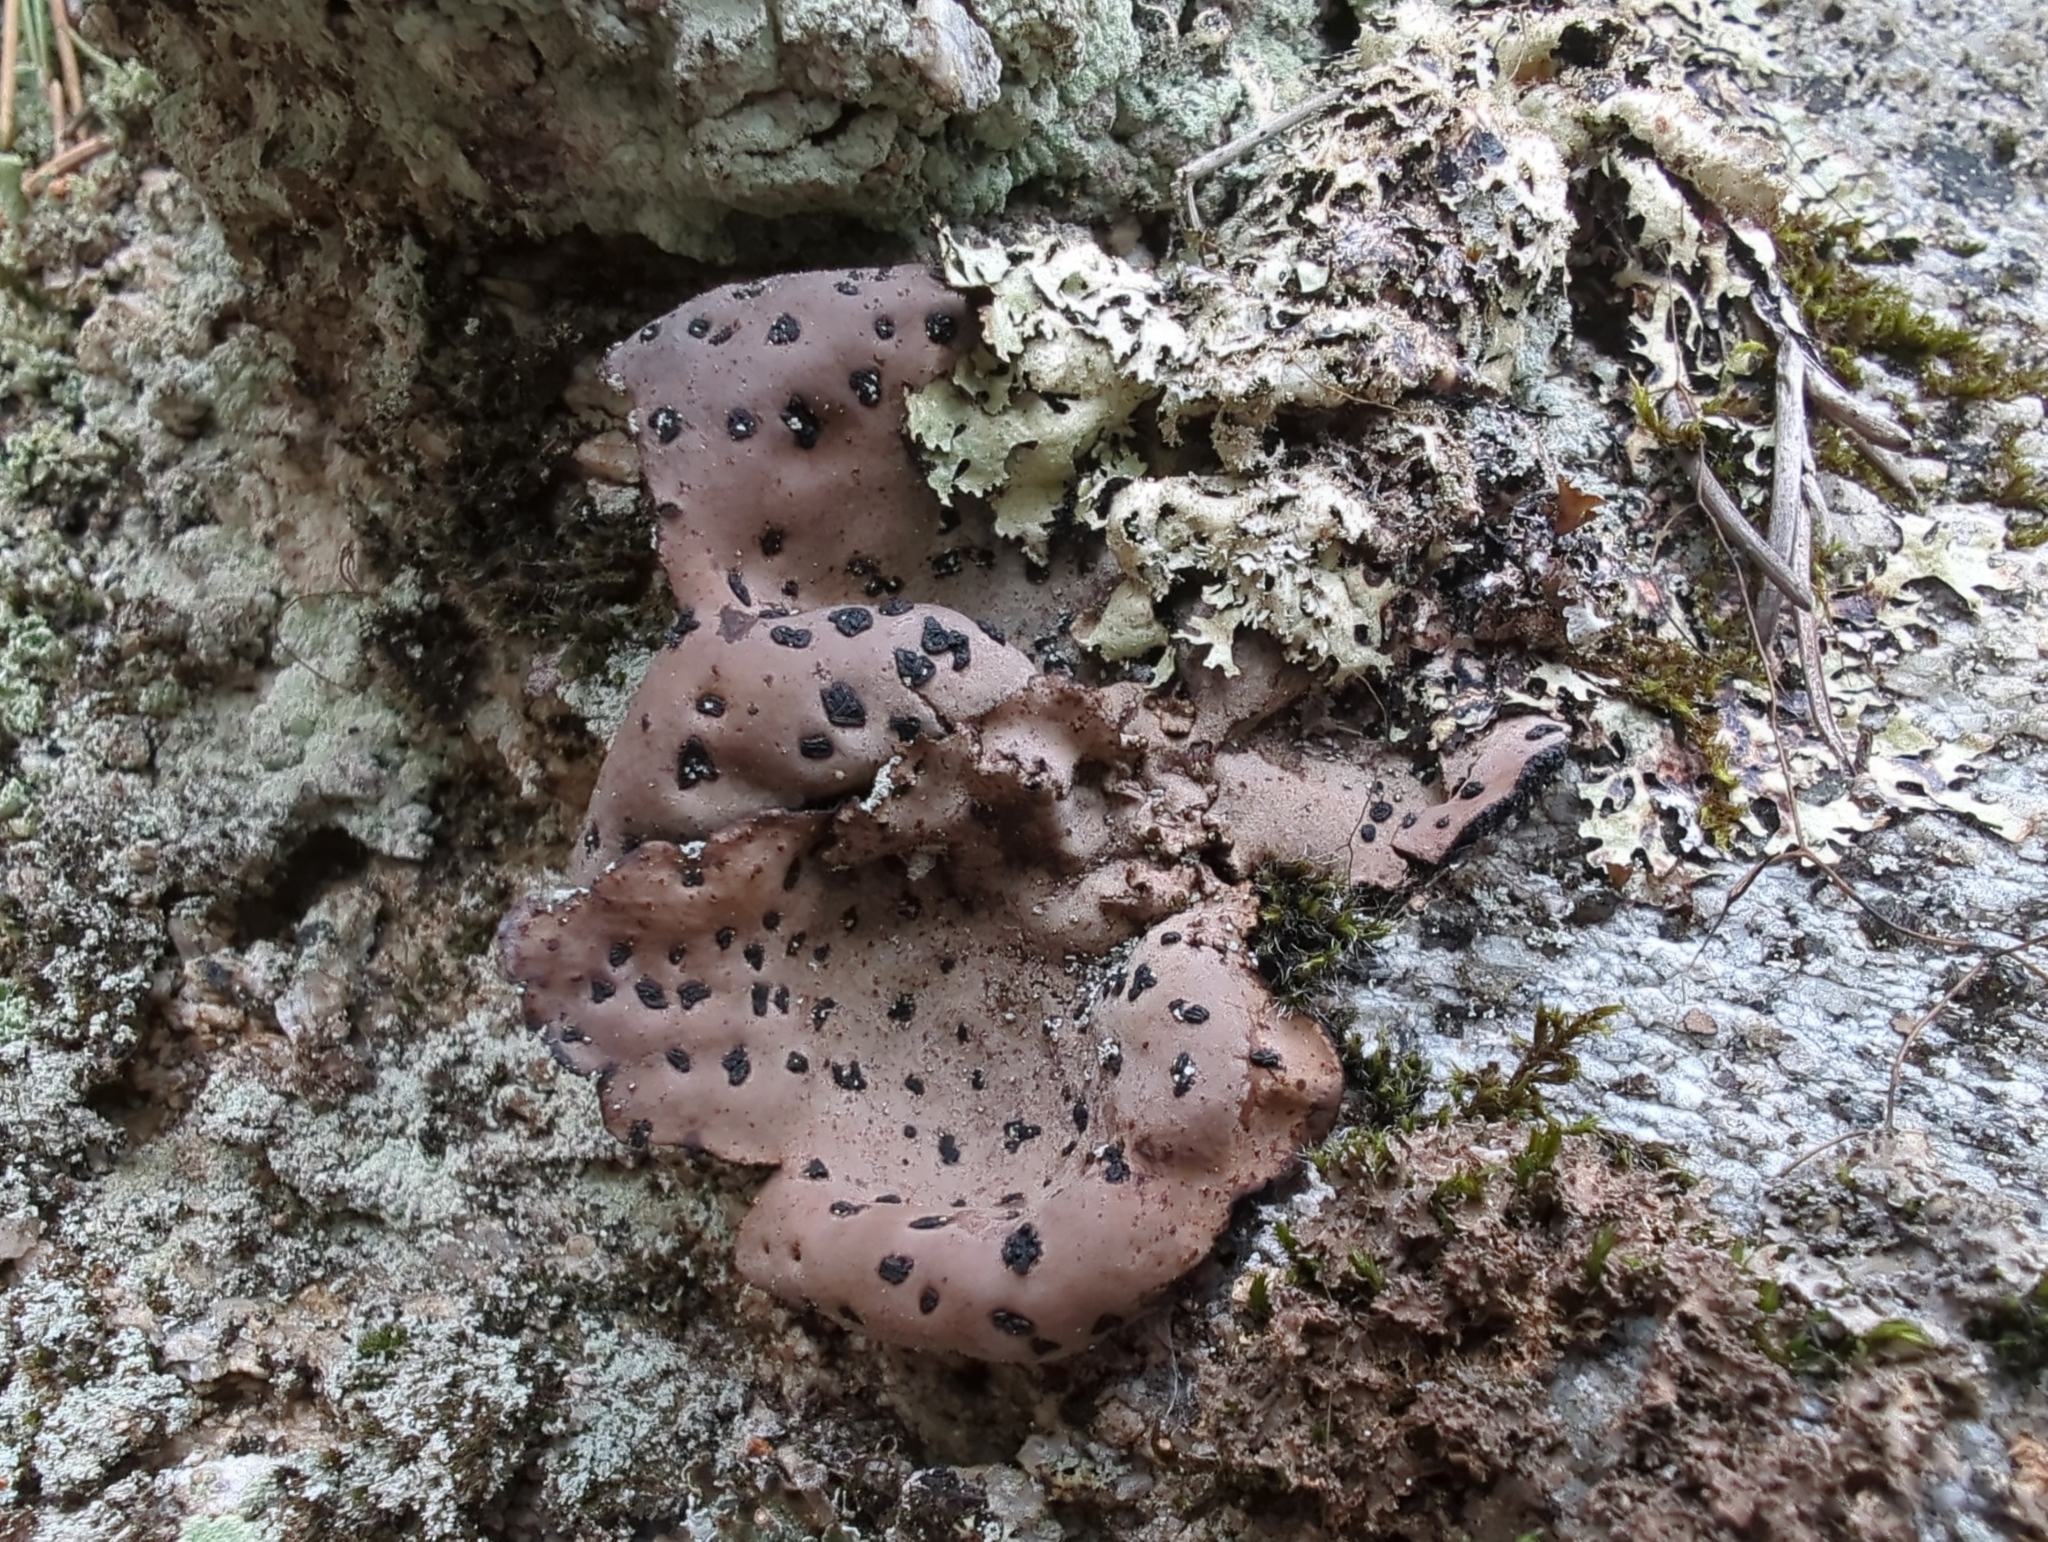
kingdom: Fungi
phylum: Ascomycota
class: Lecanoromycetes
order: Umbilicariales
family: Umbilicariaceae
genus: Umbilicaria
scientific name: Umbilicaria angulata
